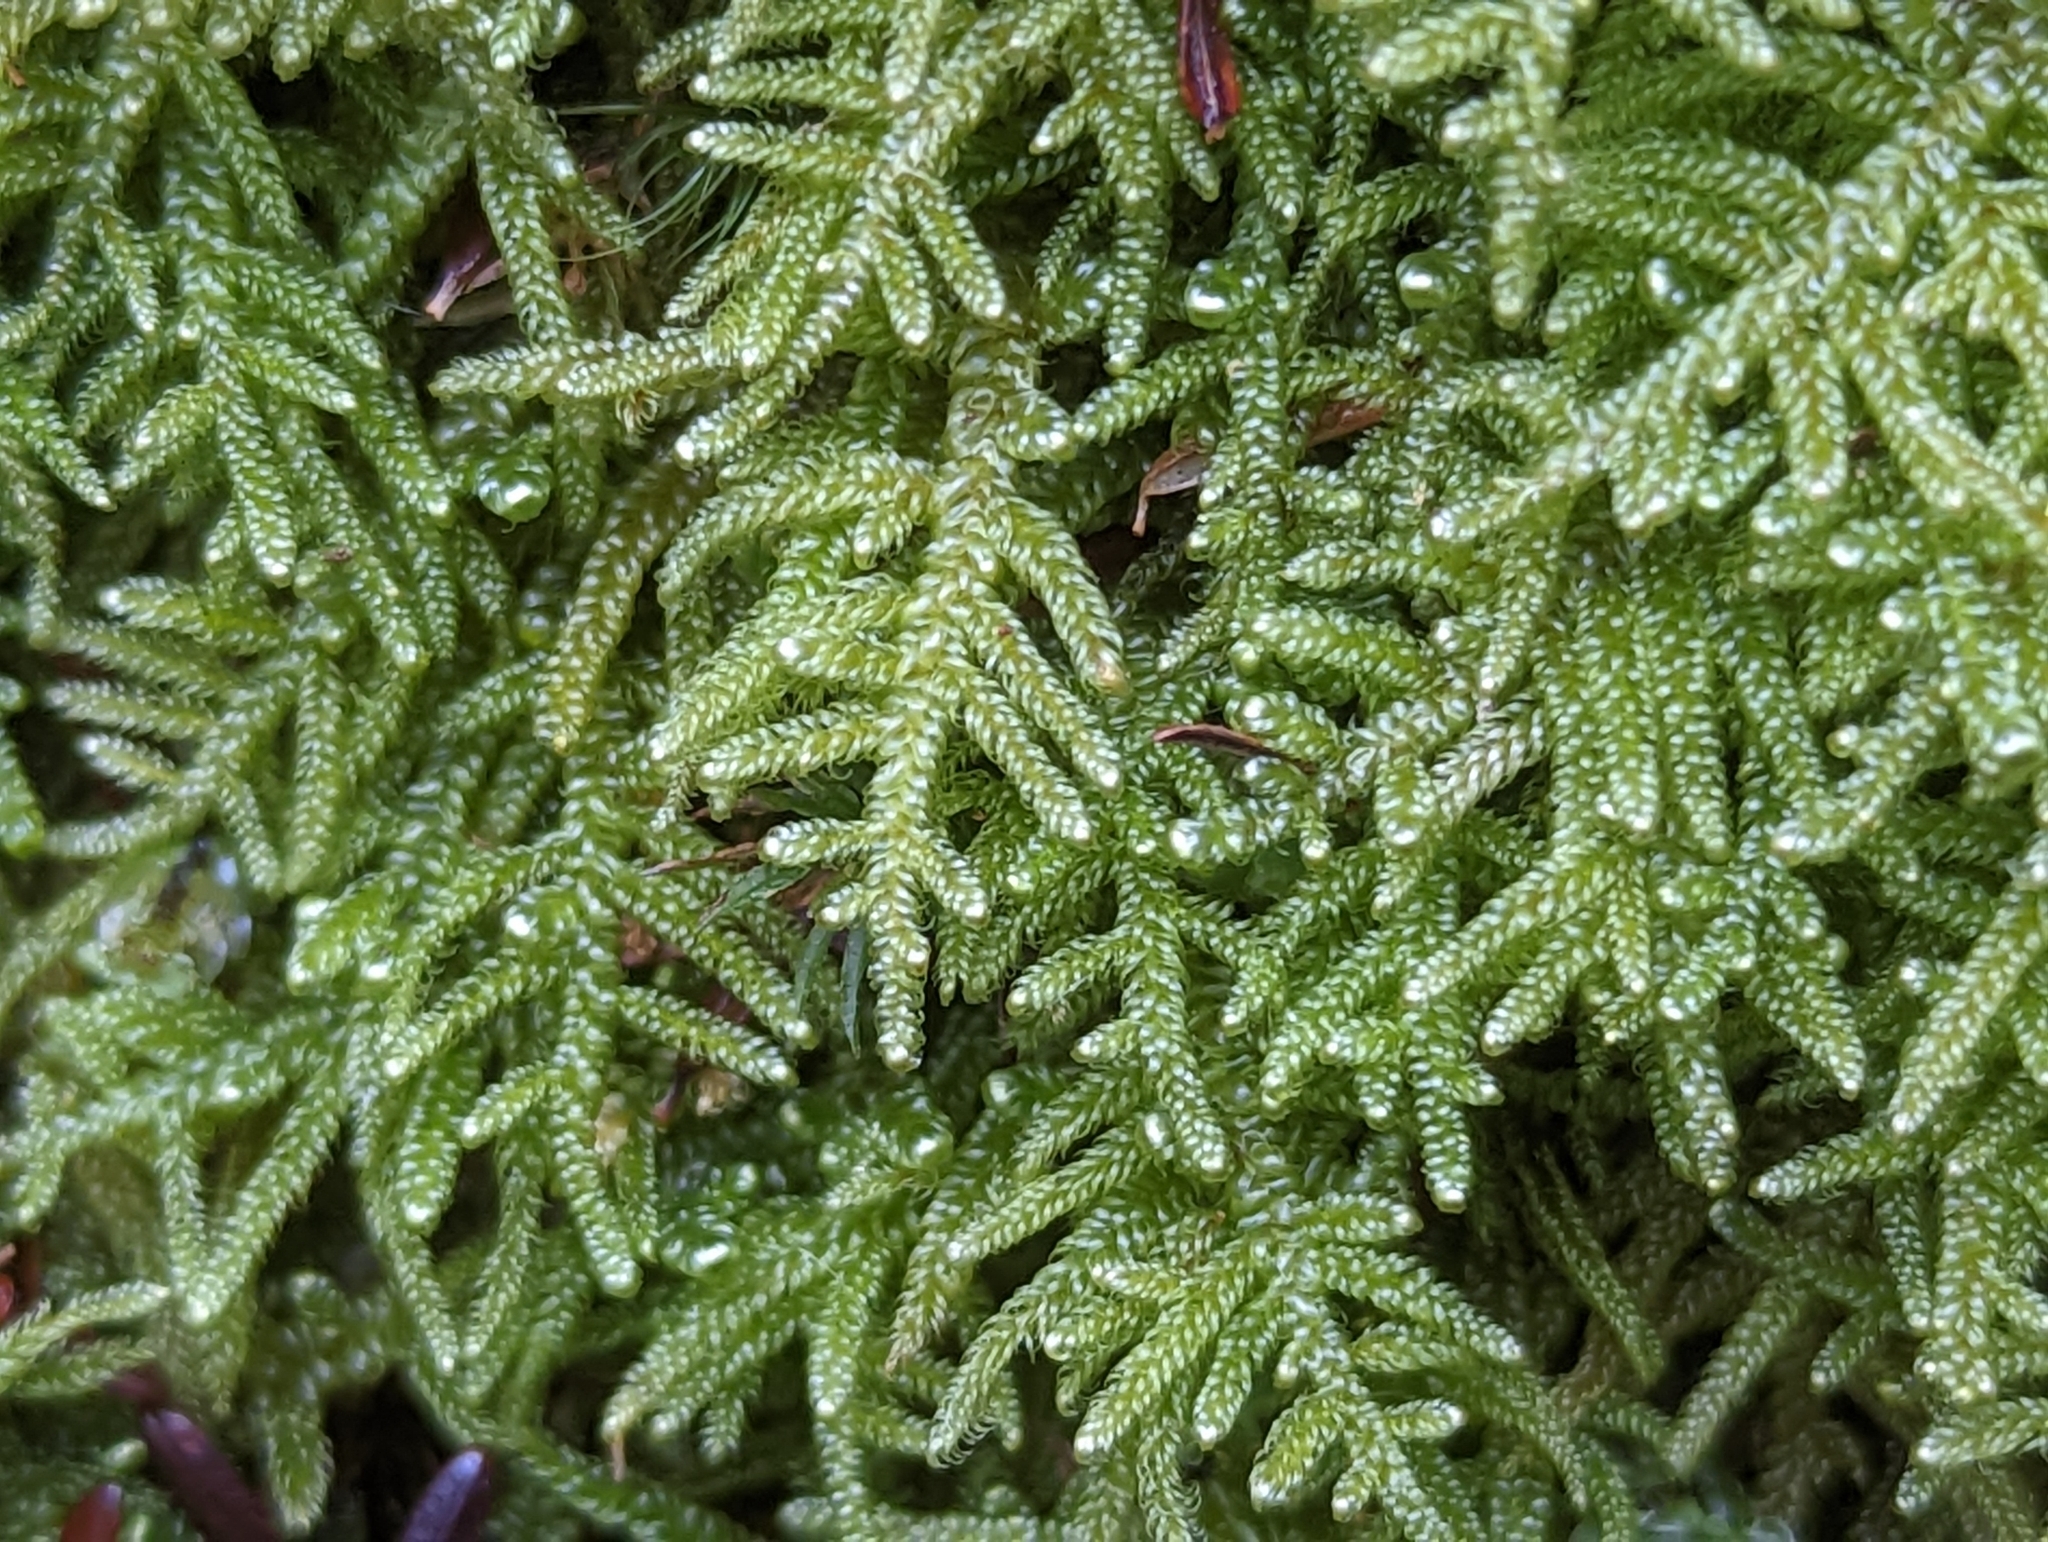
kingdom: Plantae
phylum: Bryophyta
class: Bryopsida
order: Hypnales
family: Callicladiaceae
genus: Callicladium
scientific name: Callicladium imponens
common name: Brocade moss
